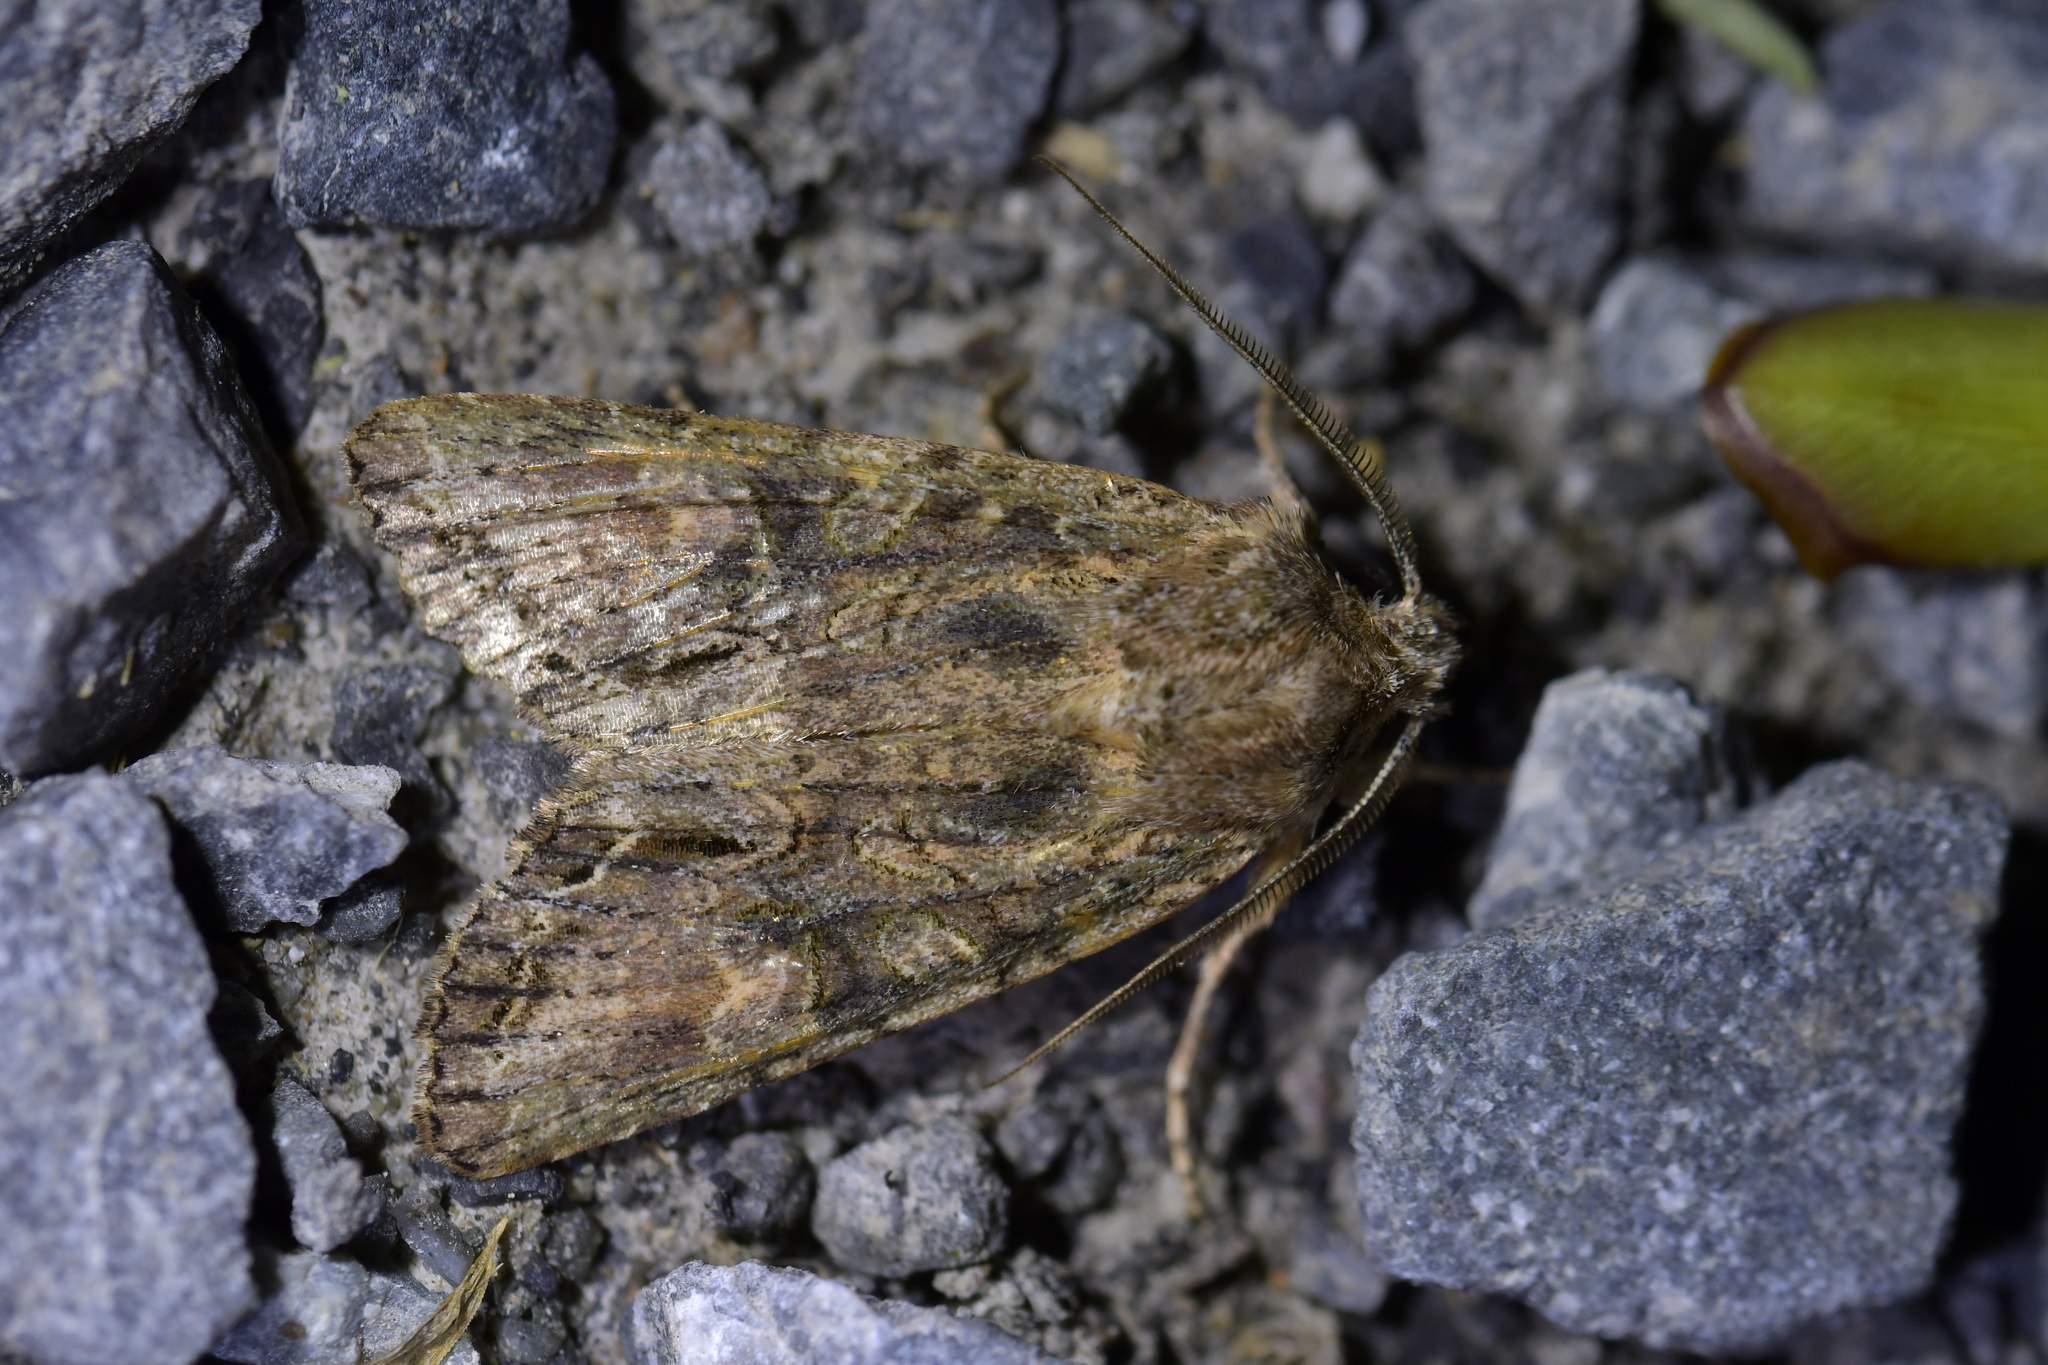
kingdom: Animalia
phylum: Arthropoda
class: Insecta
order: Lepidoptera
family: Noctuidae
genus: Ichneutica
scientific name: Ichneutica mutans
